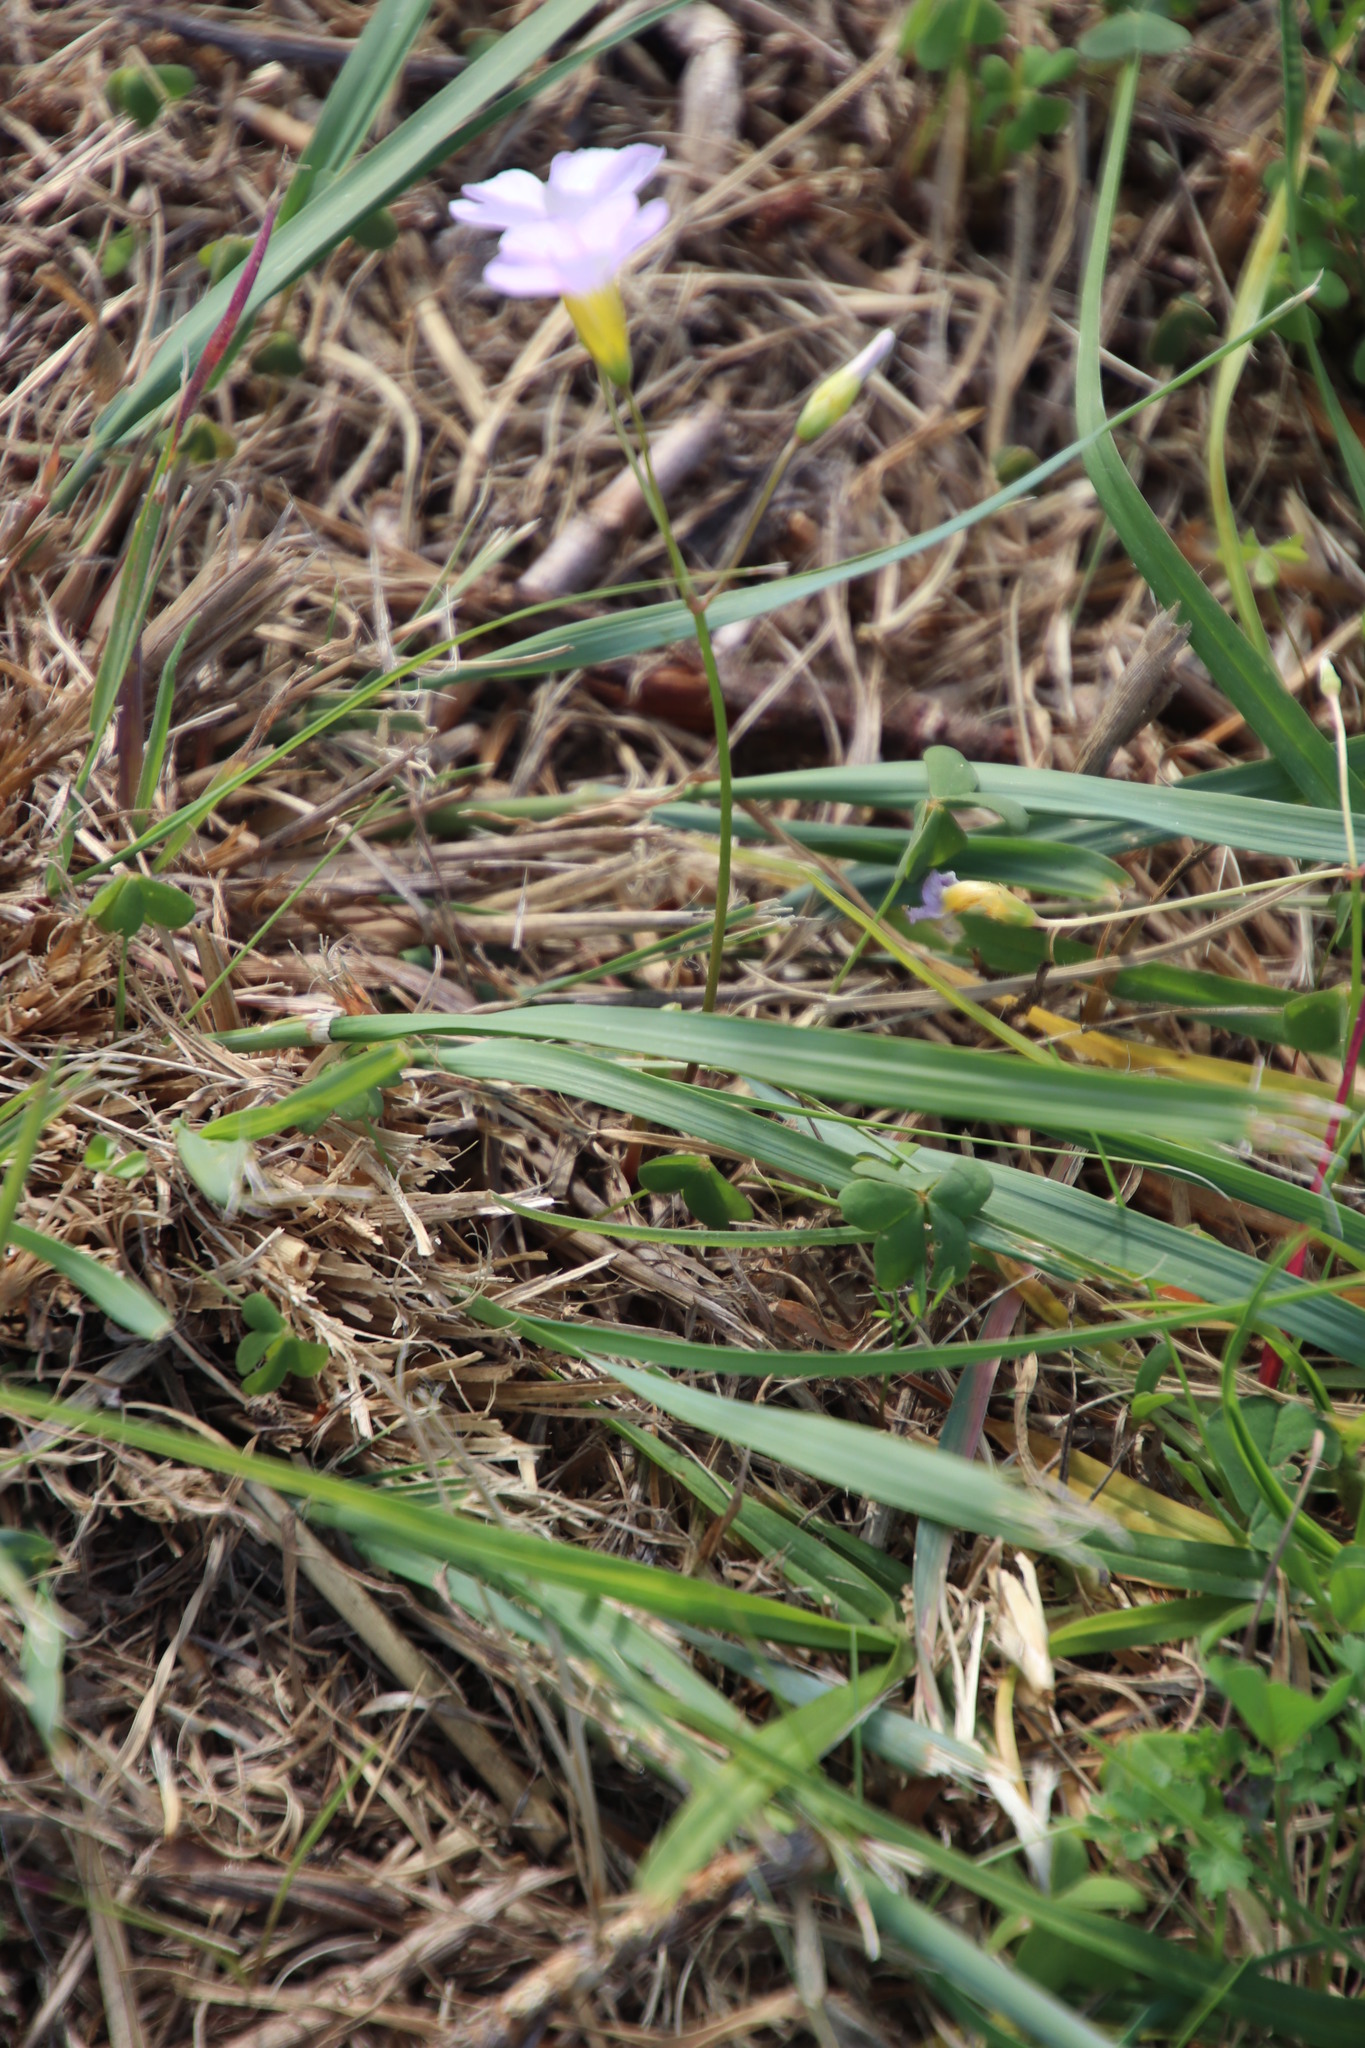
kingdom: Plantae
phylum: Tracheophyta
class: Magnoliopsida
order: Oxalidales
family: Oxalidaceae
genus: Oxalis
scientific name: Oxalis caprina
